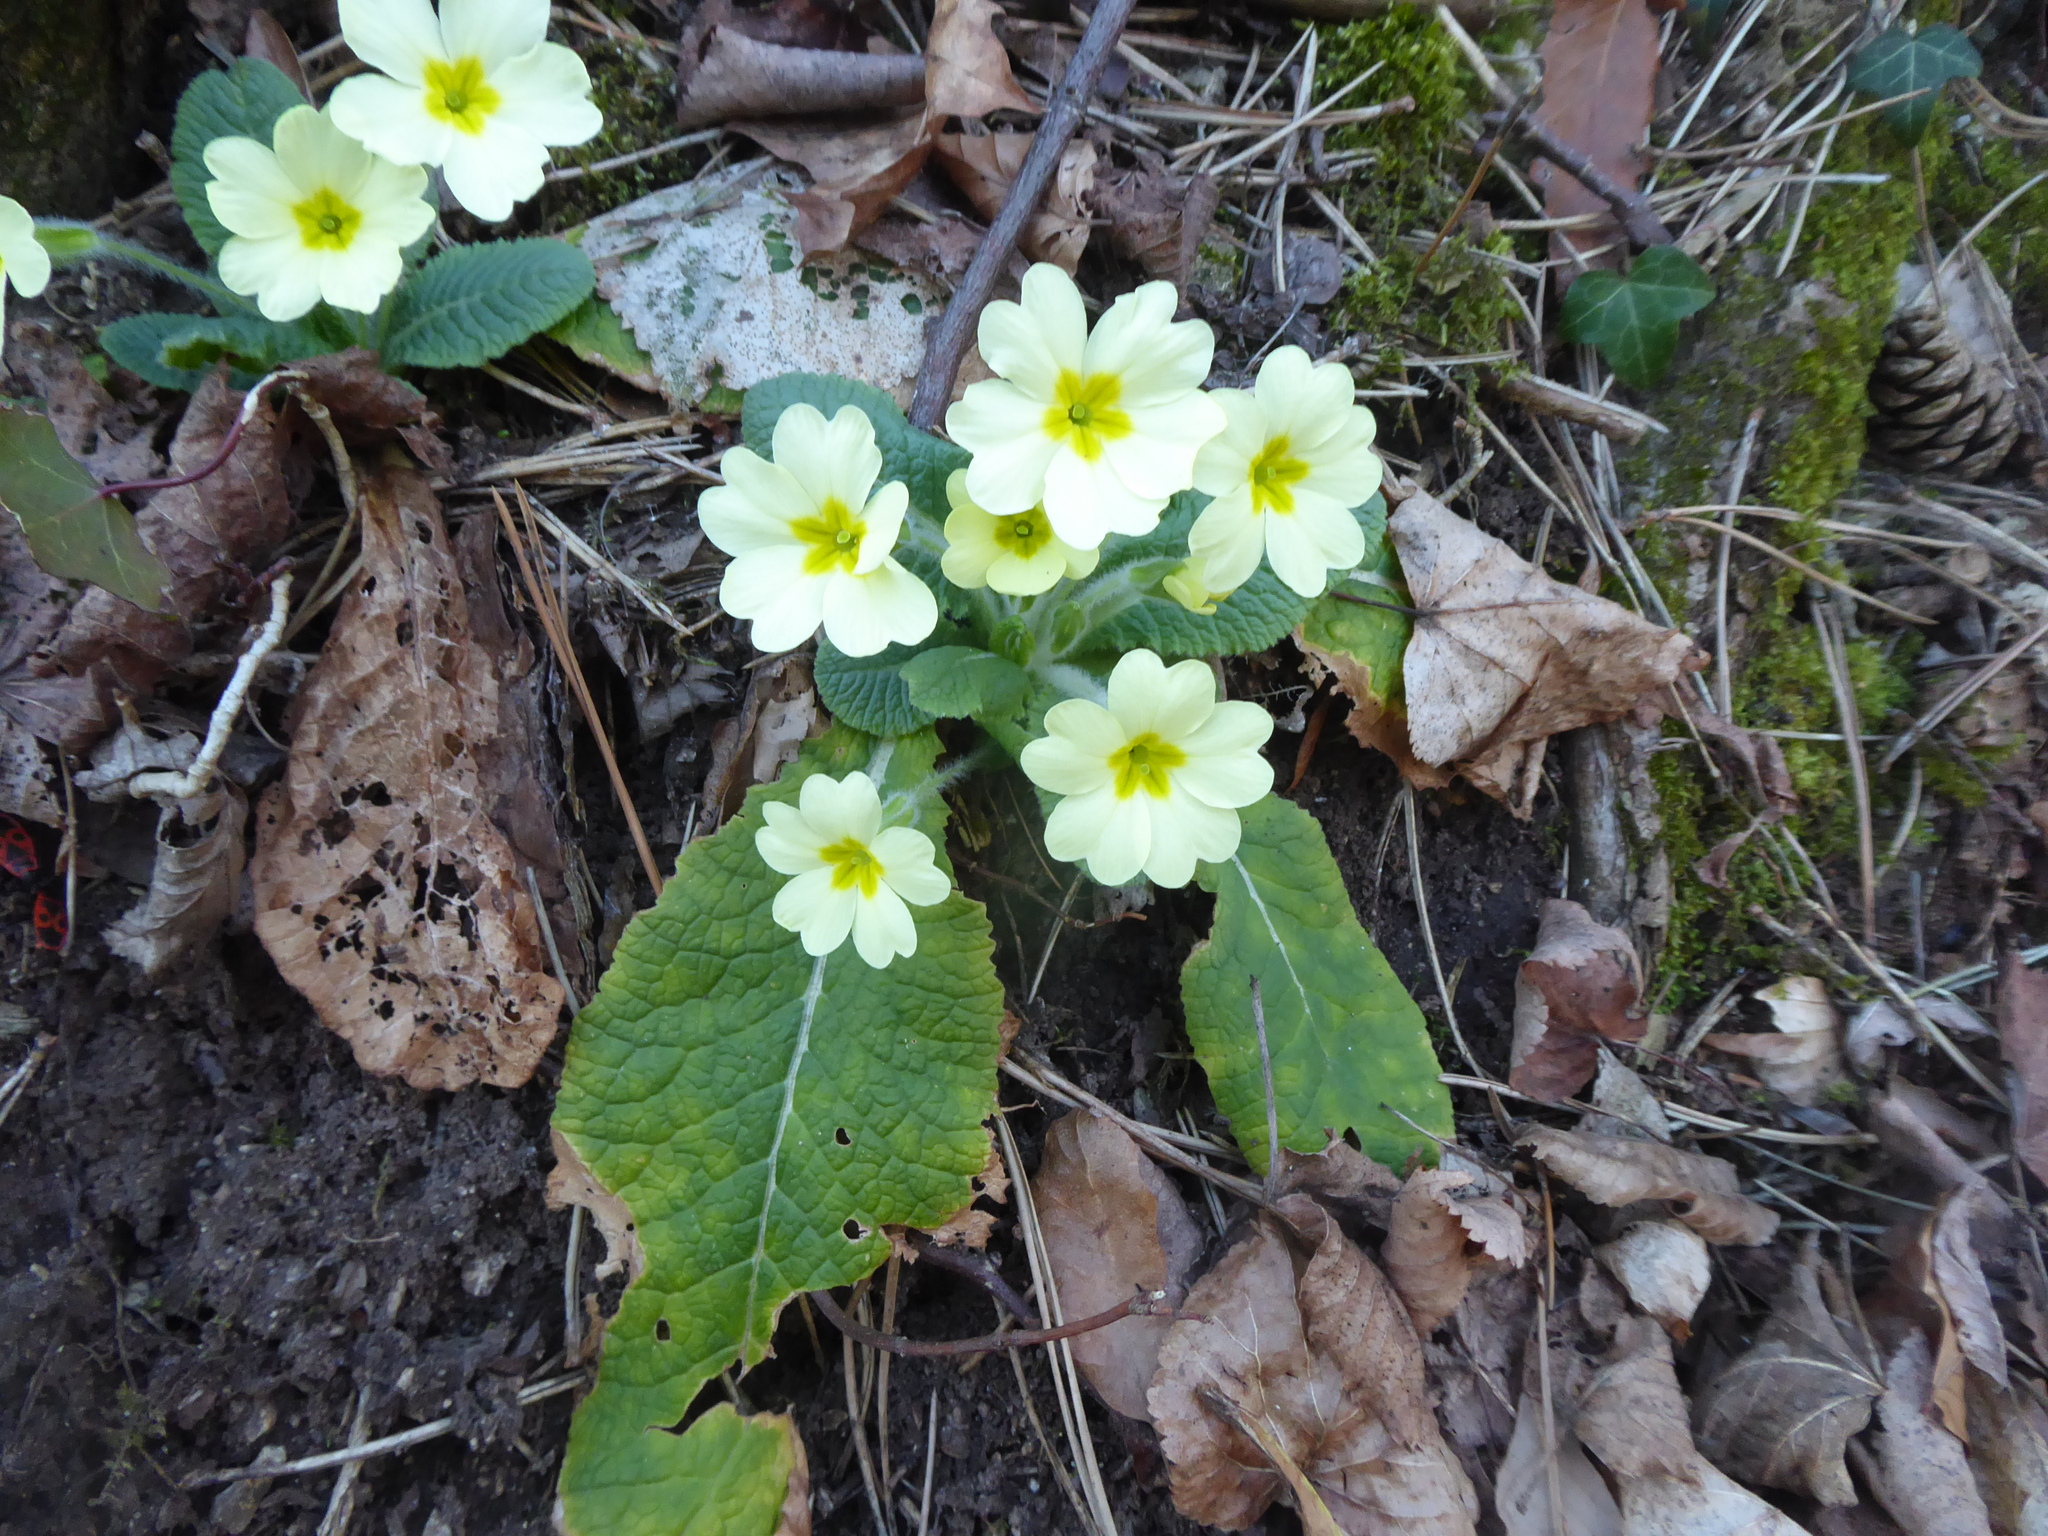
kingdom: Plantae
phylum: Tracheophyta
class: Magnoliopsida
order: Ericales
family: Primulaceae
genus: Primula
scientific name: Primula vulgaris
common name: Primrose
